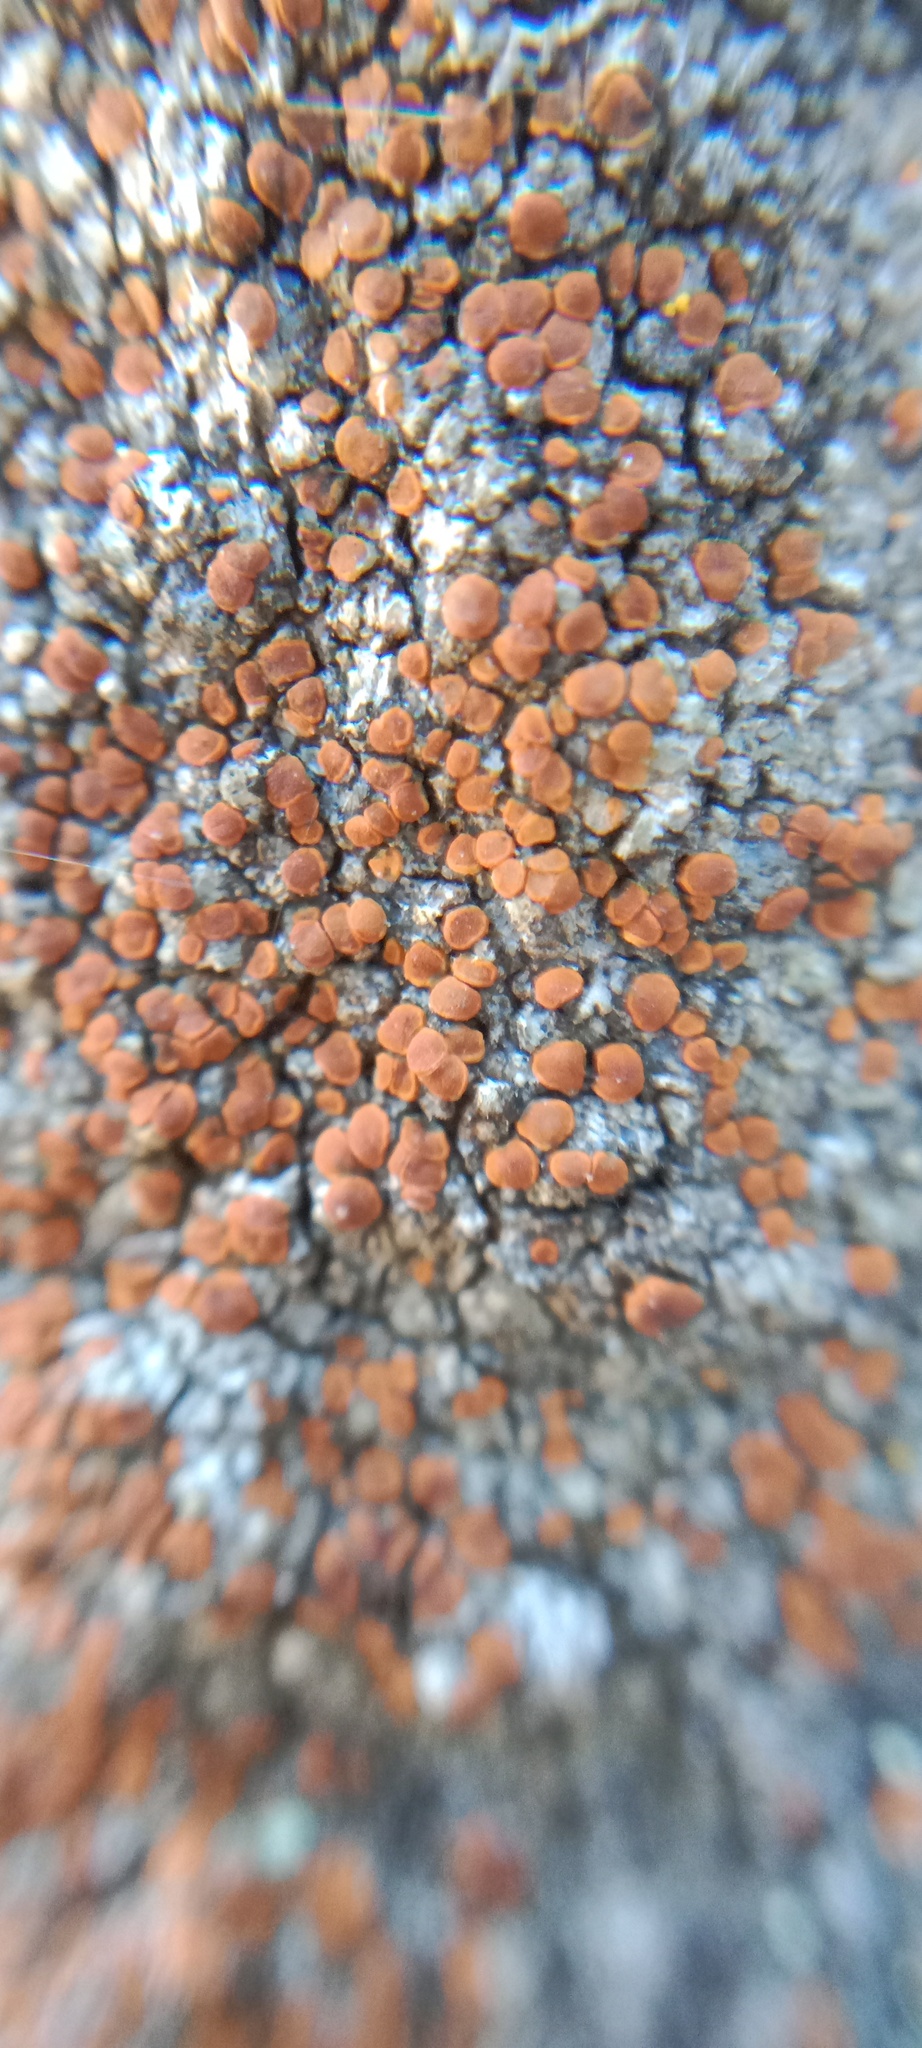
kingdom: Fungi
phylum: Ascomycota
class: Lecanoromycetes
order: Teloschistales
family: Teloschistaceae
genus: Rufoplaca
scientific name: Rufoplaca arenaria
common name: Granite firedot lichen
